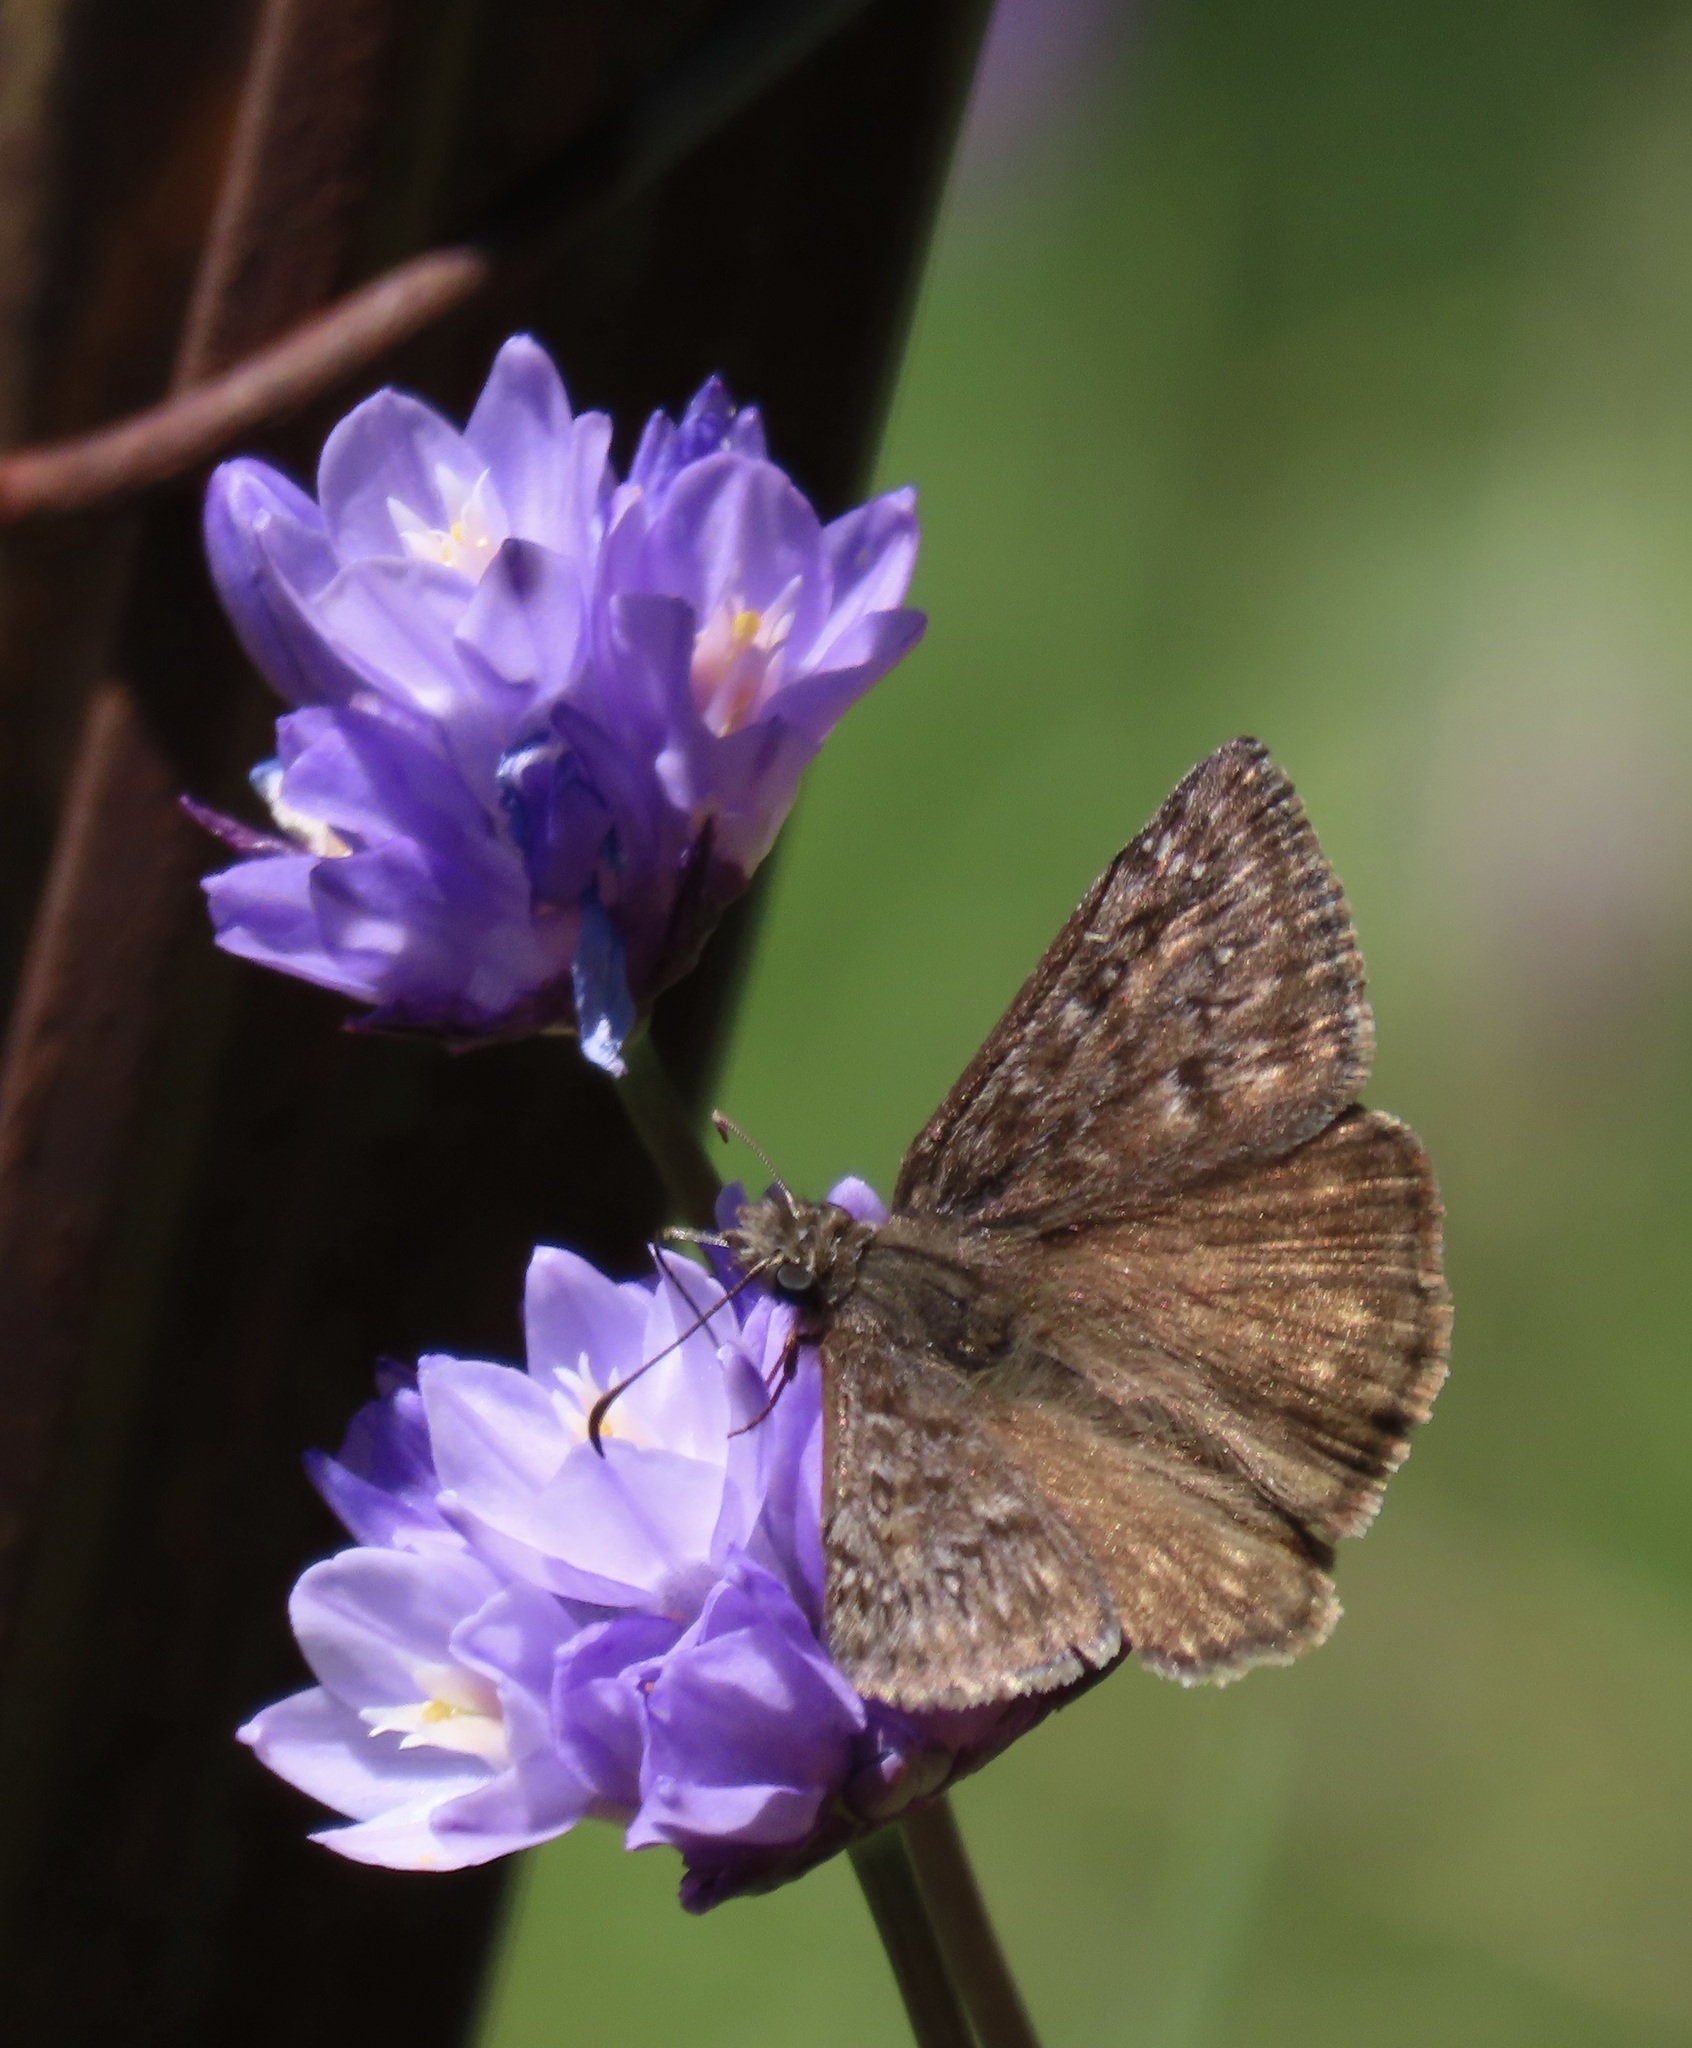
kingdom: Animalia
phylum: Arthropoda
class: Insecta
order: Lepidoptera
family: Hesperiidae
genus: Erynnis
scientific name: Erynnis propertius
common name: Propertius duskywing
